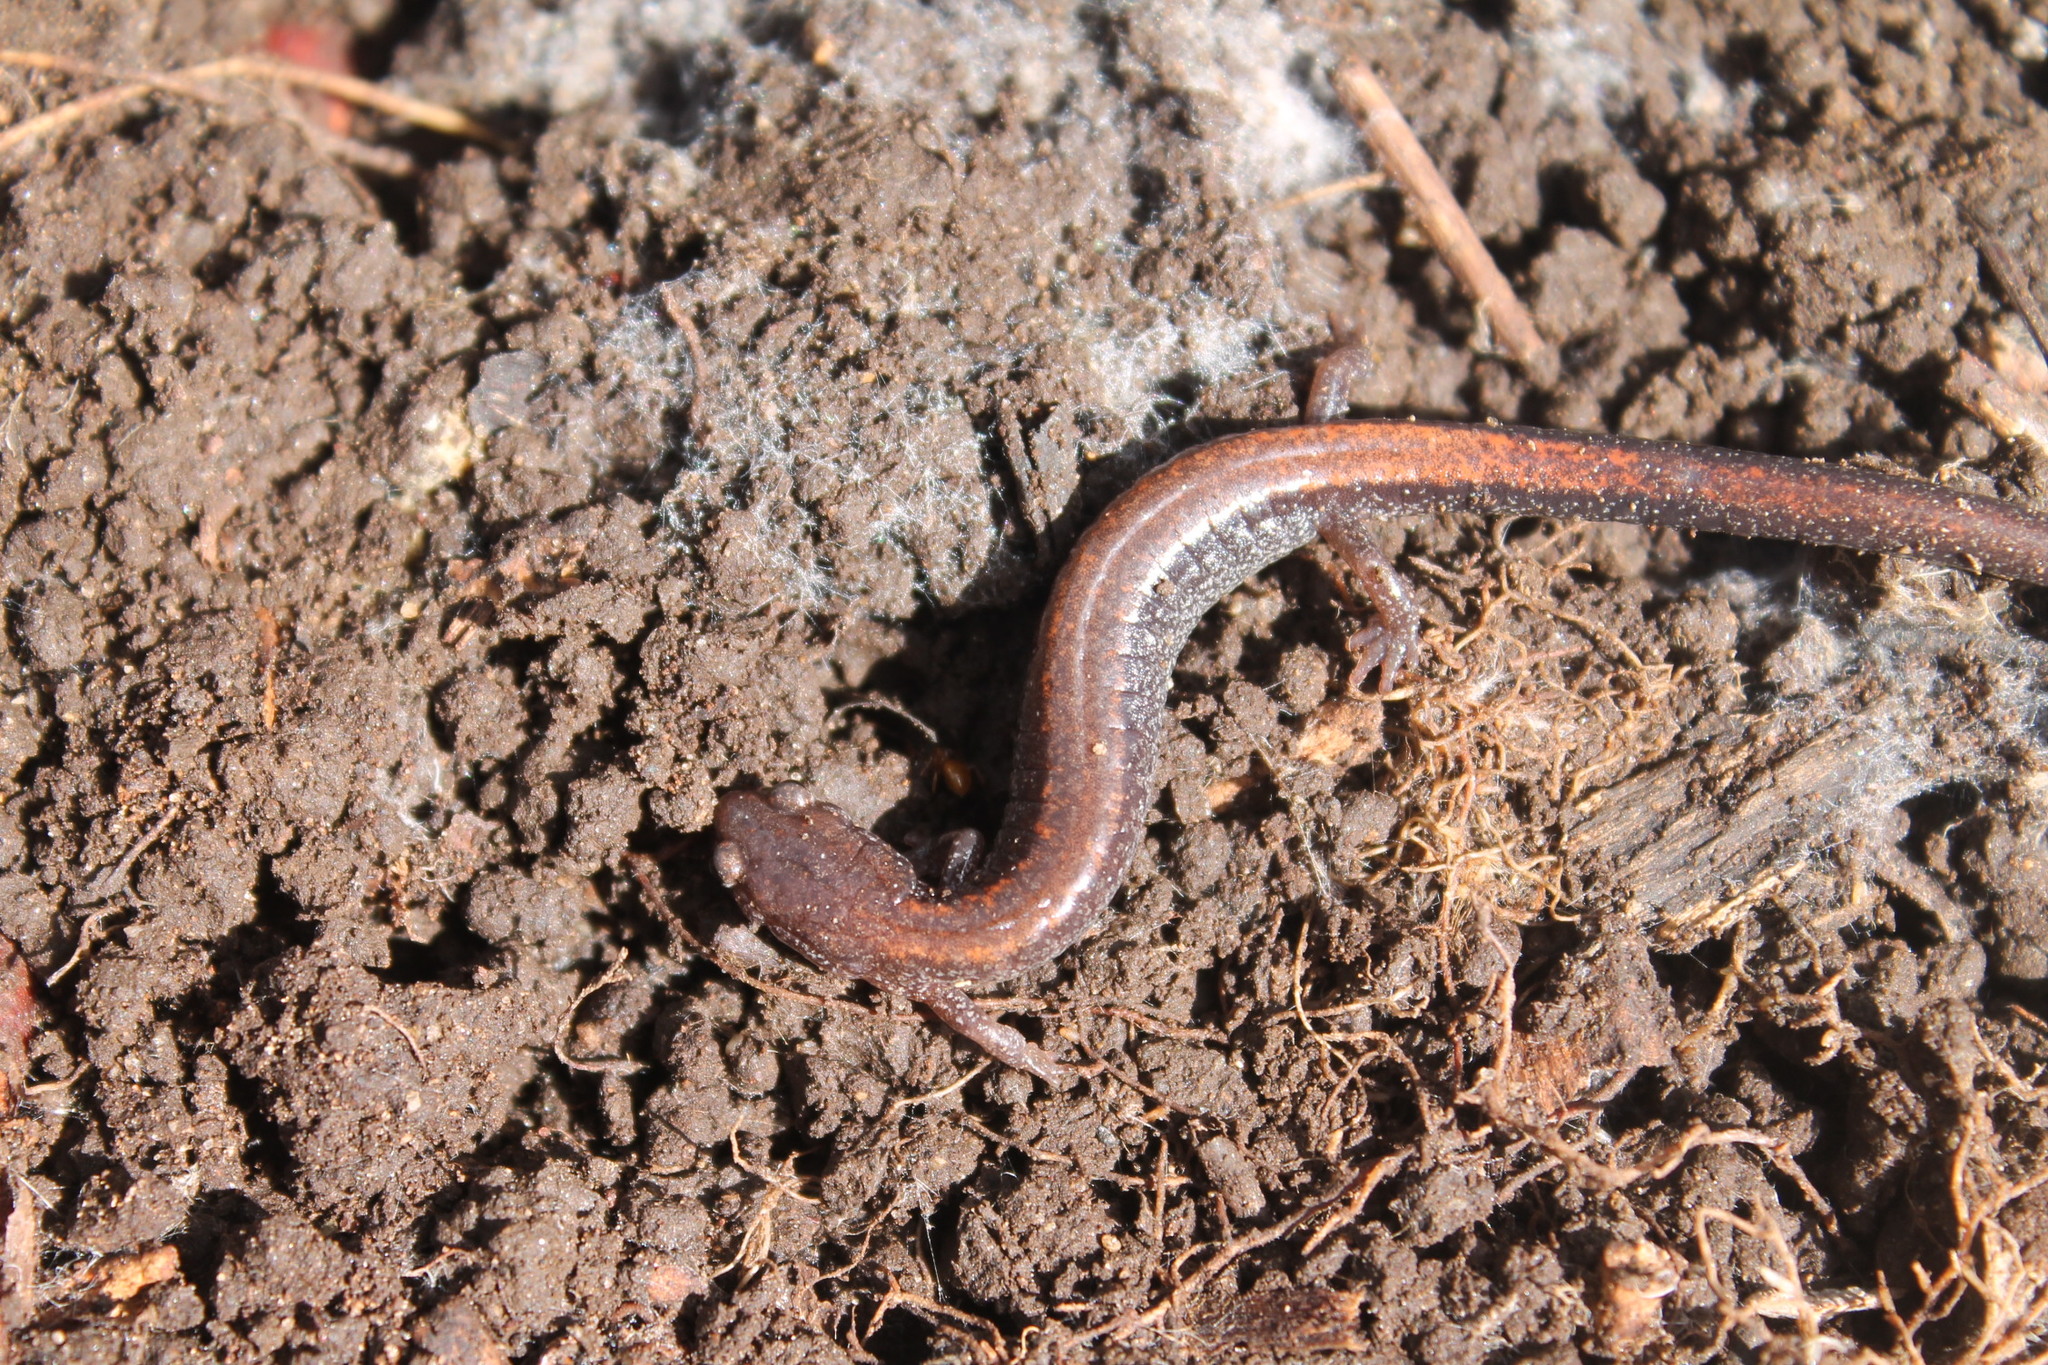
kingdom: Animalia
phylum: Chordata
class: Amphibia
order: Caudata
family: Plethodontidae
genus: Plethodon
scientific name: Plethodon cinereus
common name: Redback salamander
